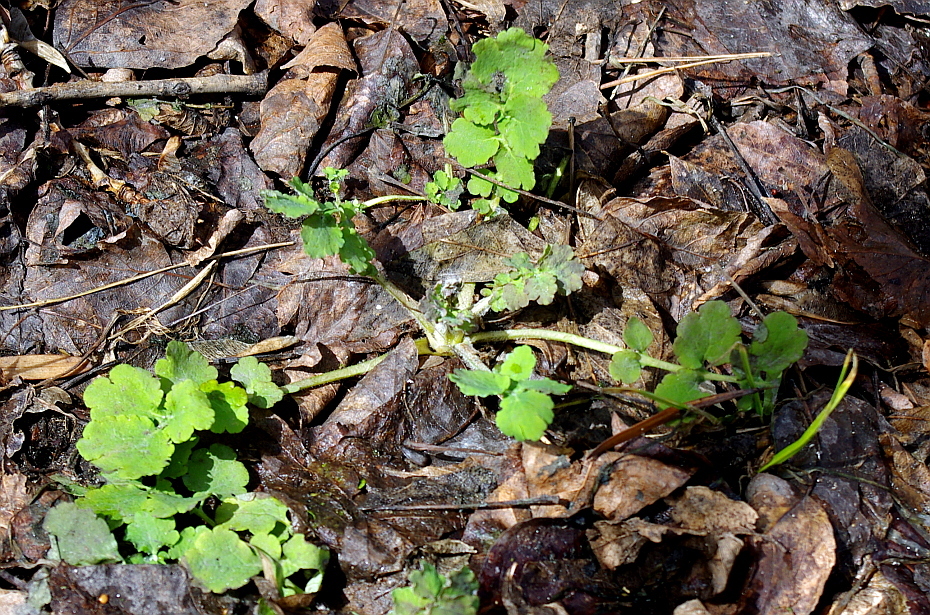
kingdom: Plantae
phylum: Tracheophyta
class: Magnoliopsida
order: Ranunculales
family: Papaveraceae
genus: Chelidonium
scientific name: Chelidonium majus
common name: Greater celandine
